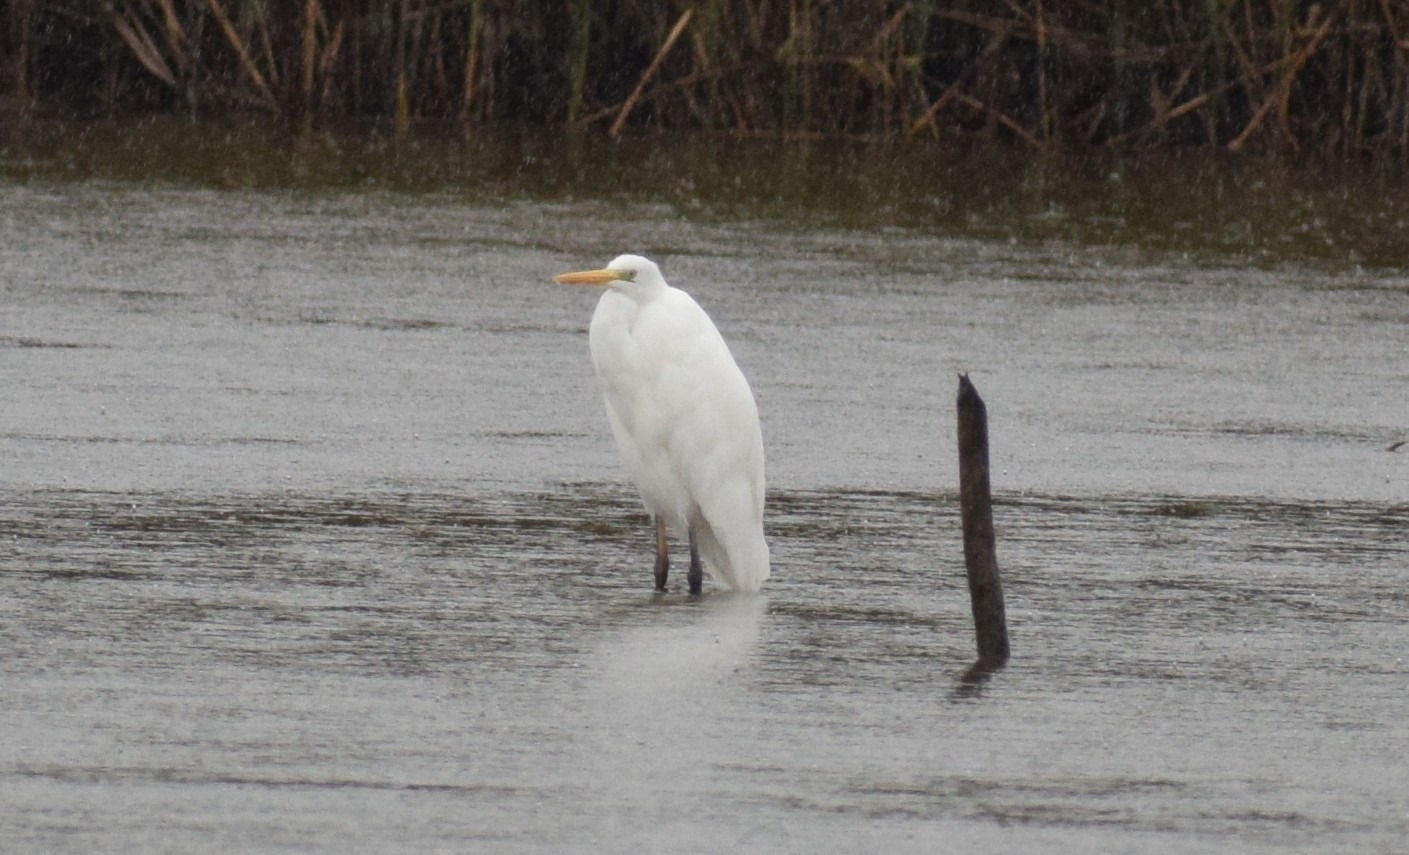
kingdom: Animalia
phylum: Chordata
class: Aves
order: Pelecaniformes
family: Ardeidae
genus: Ardea
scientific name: Ardea alba
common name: Great egret
